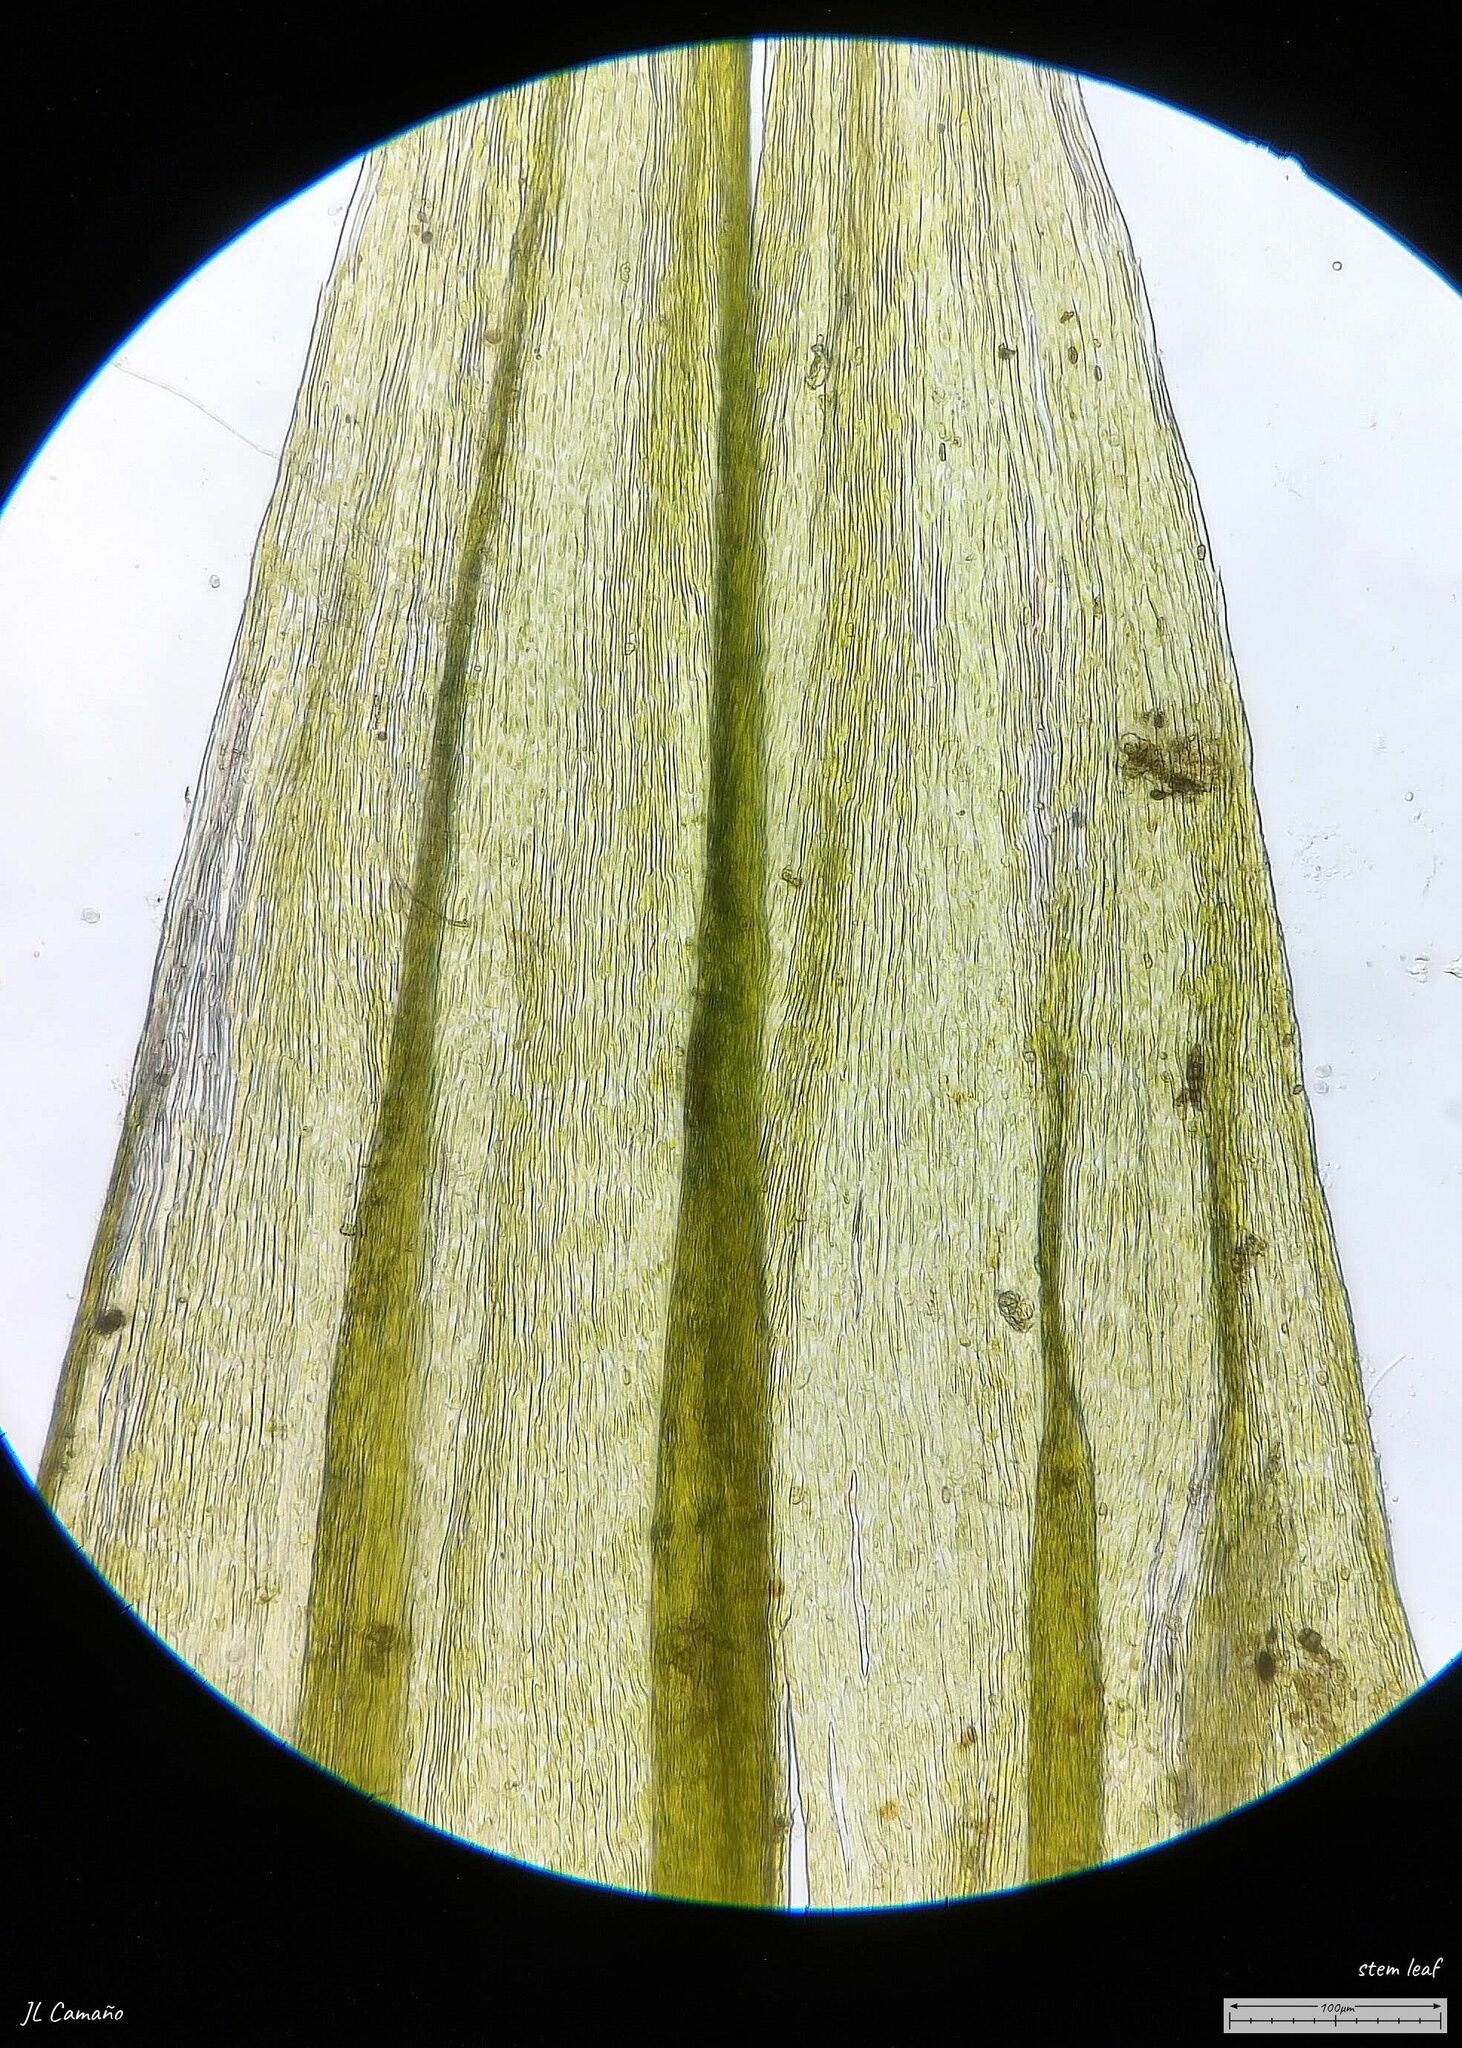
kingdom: Plantae
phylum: Bryophyta
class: Bryopsida
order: Hypnales
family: Brachytheciaceae
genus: Homalothecium
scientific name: Homalothecium sericeum
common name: Silky wall feather-moss
